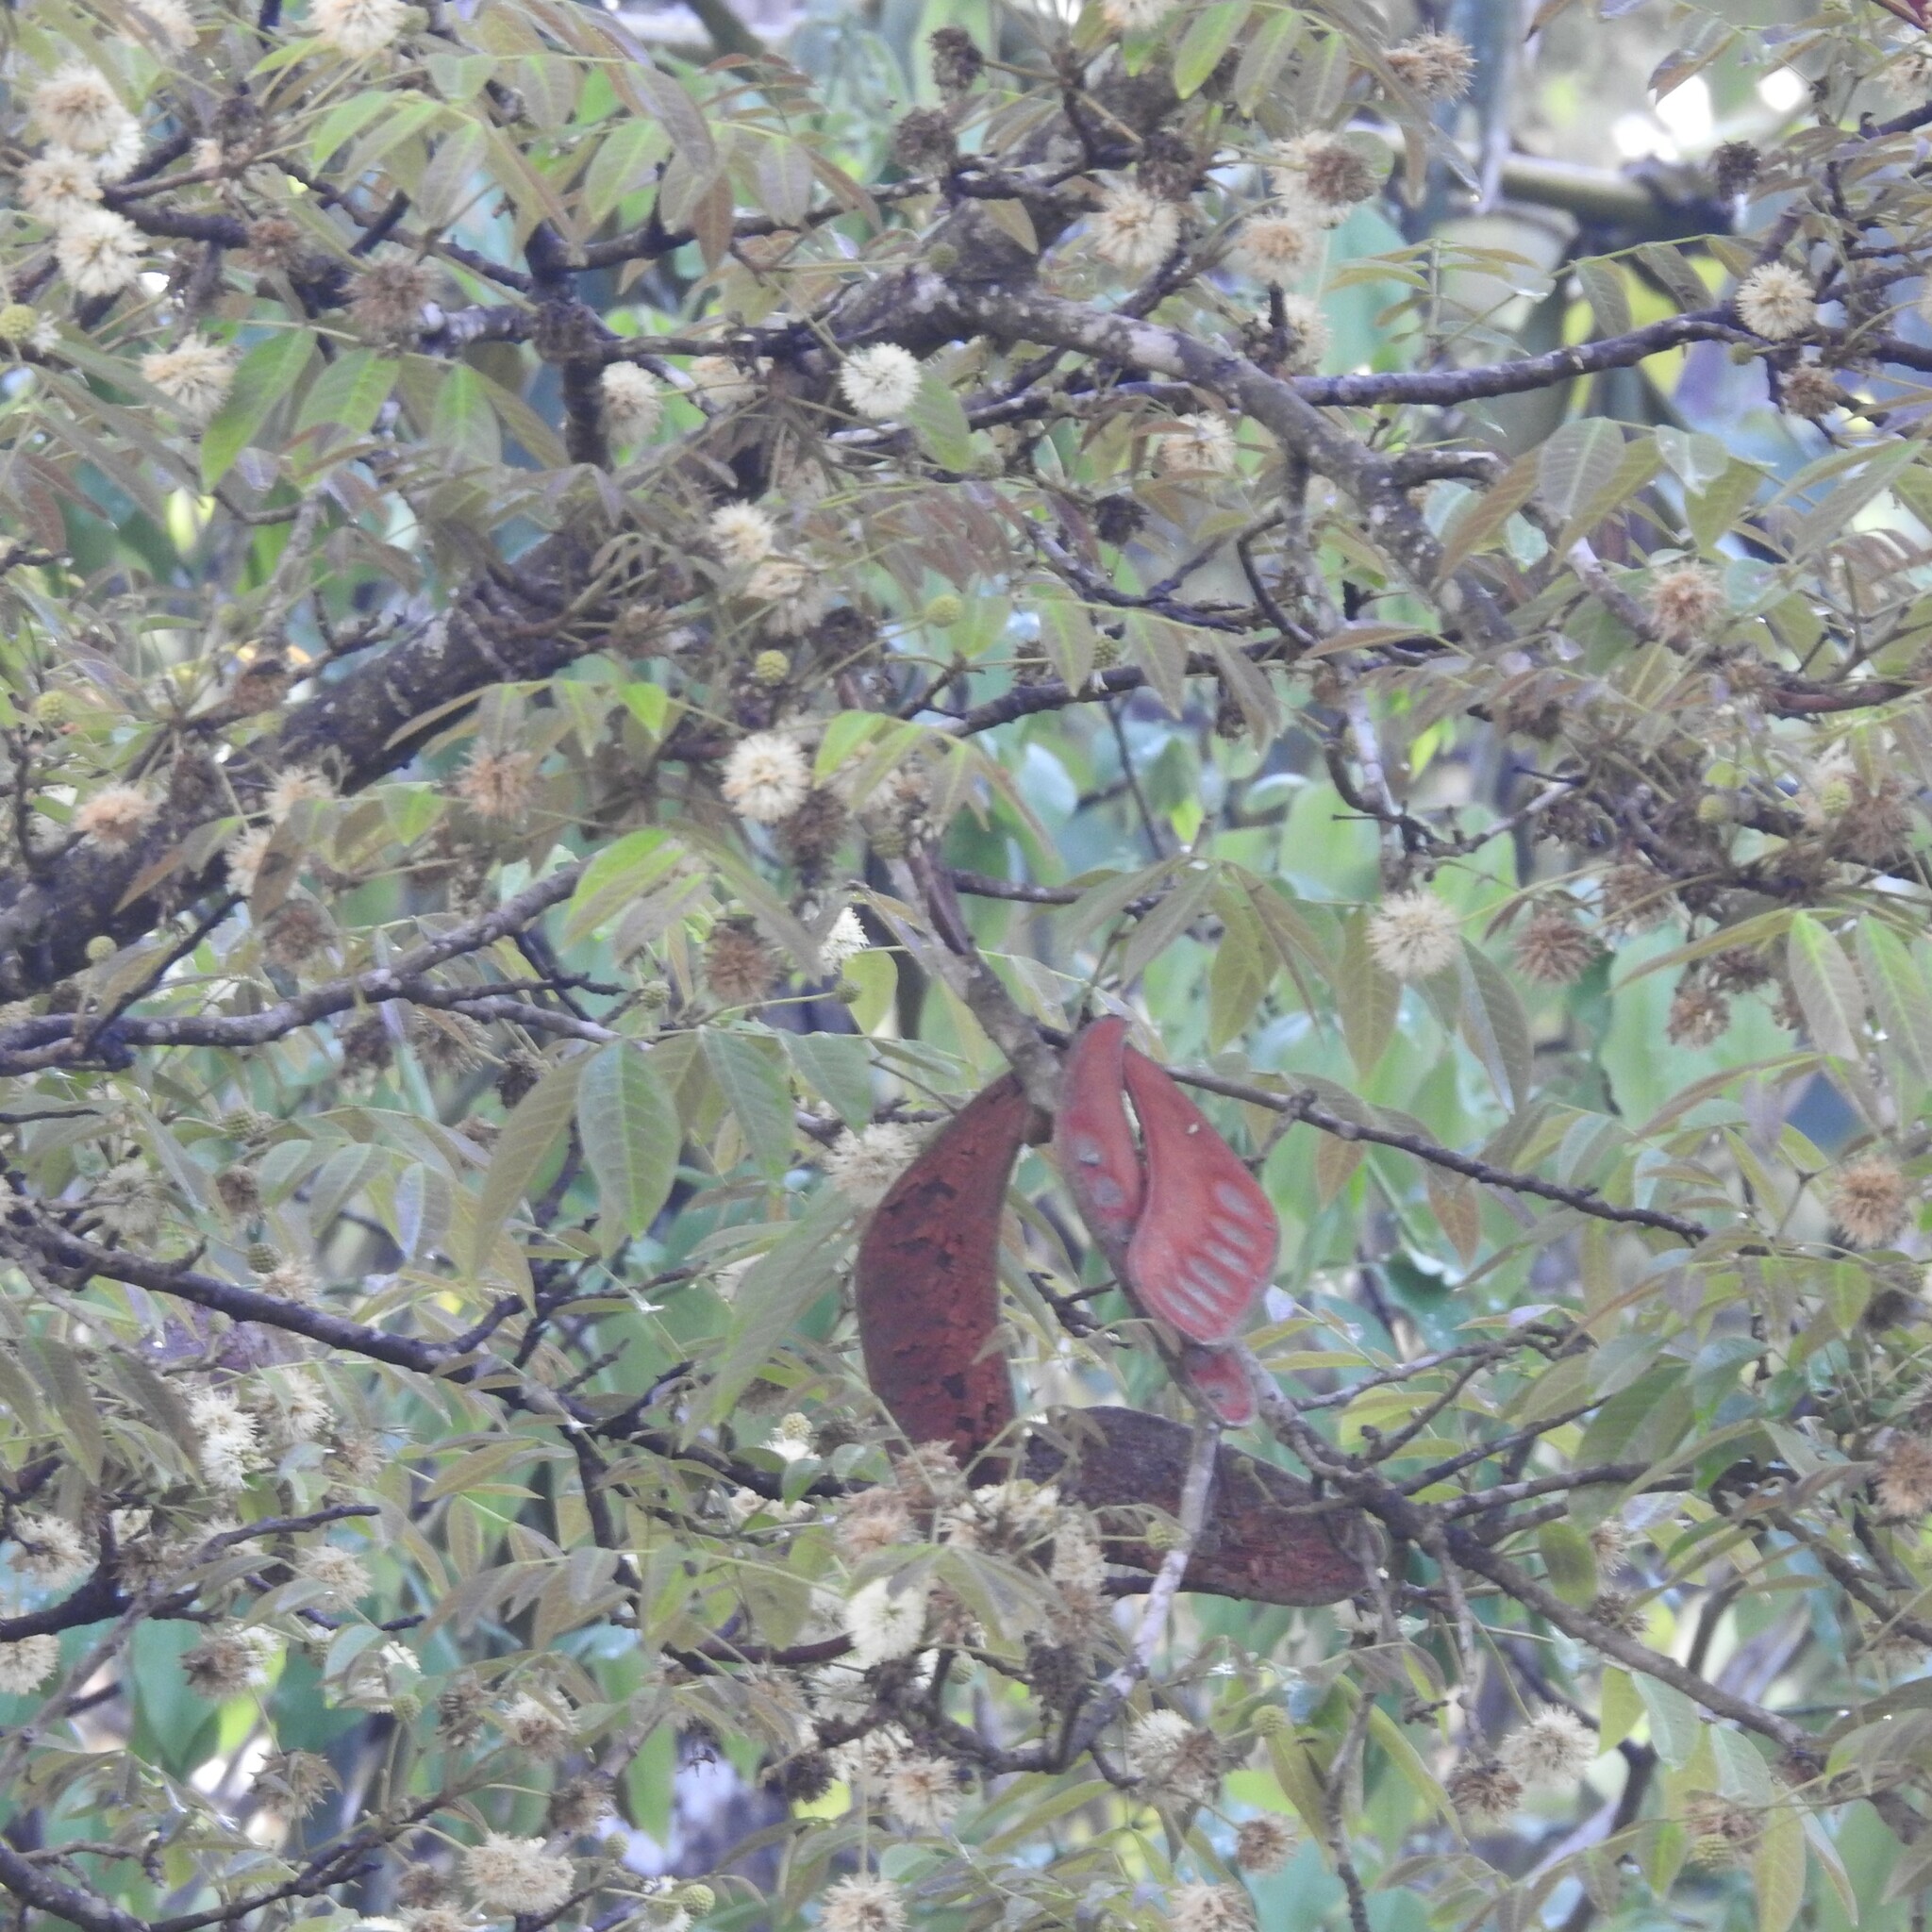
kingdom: Plantae
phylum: Tracheophyta
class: Magnoliopsida
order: Fabales
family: Fabaceae
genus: Xylia
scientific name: Xylia xylocarpa
